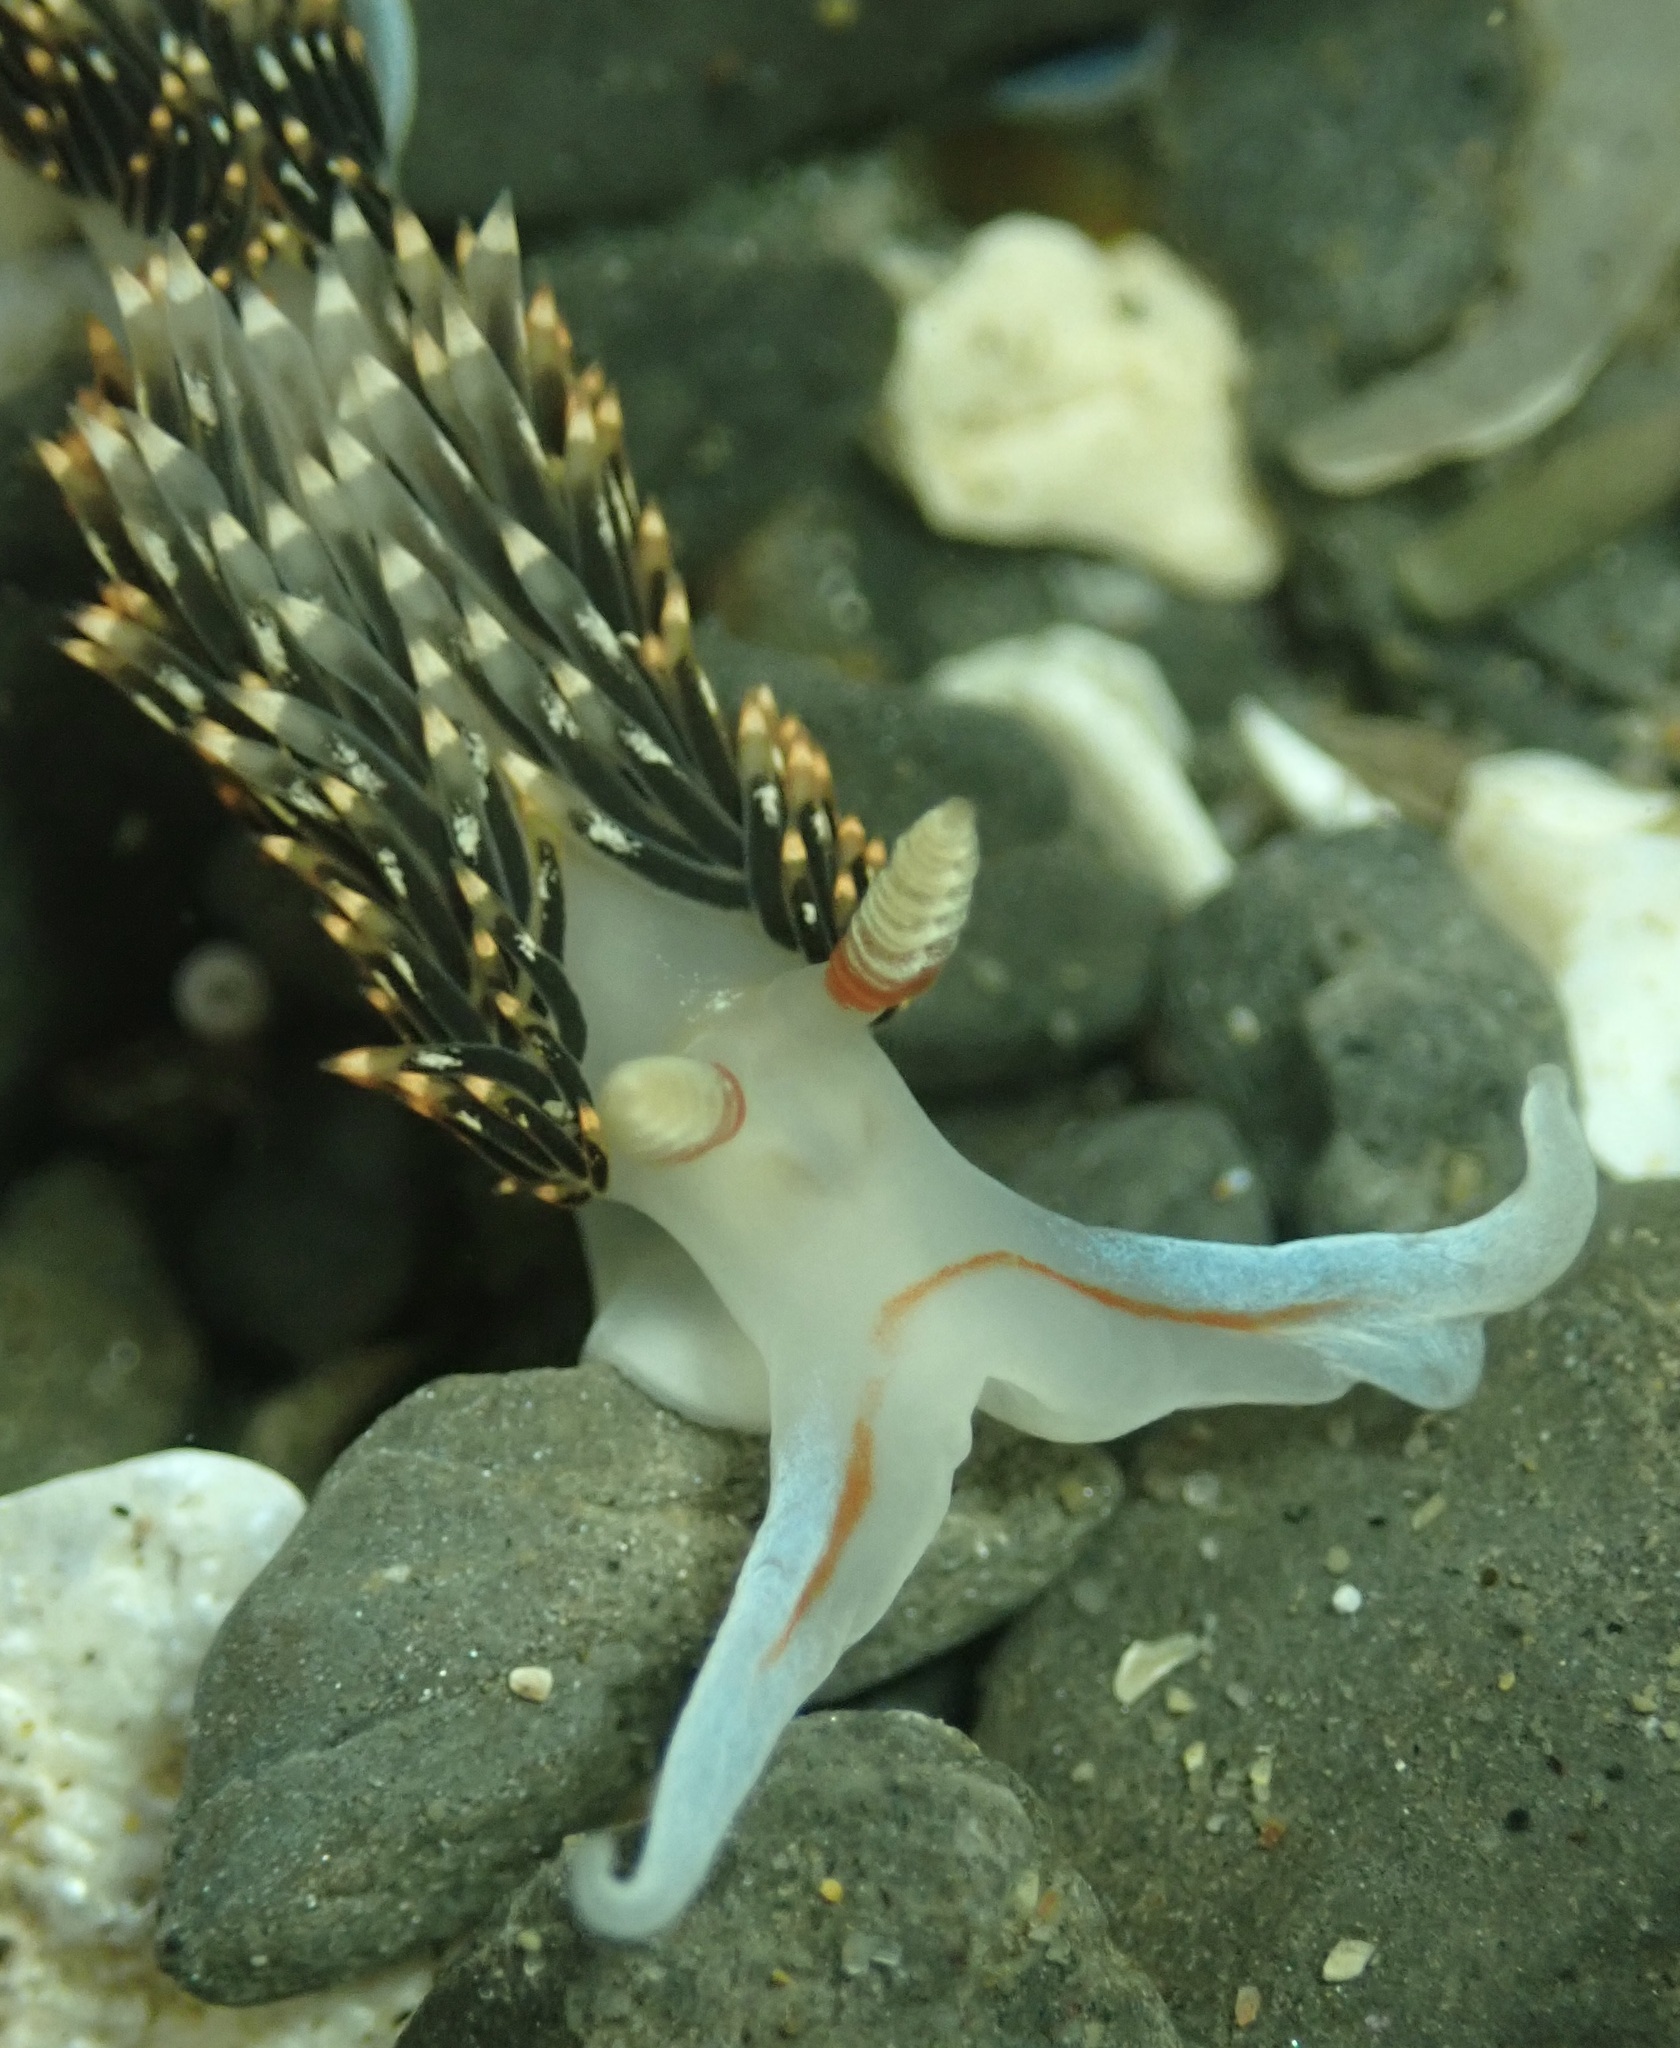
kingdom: Animalia
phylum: Mollusca
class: Gastropoda
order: Nudibranchia
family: Facelinidae
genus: Phidiana
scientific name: Phidiana hiltoni
